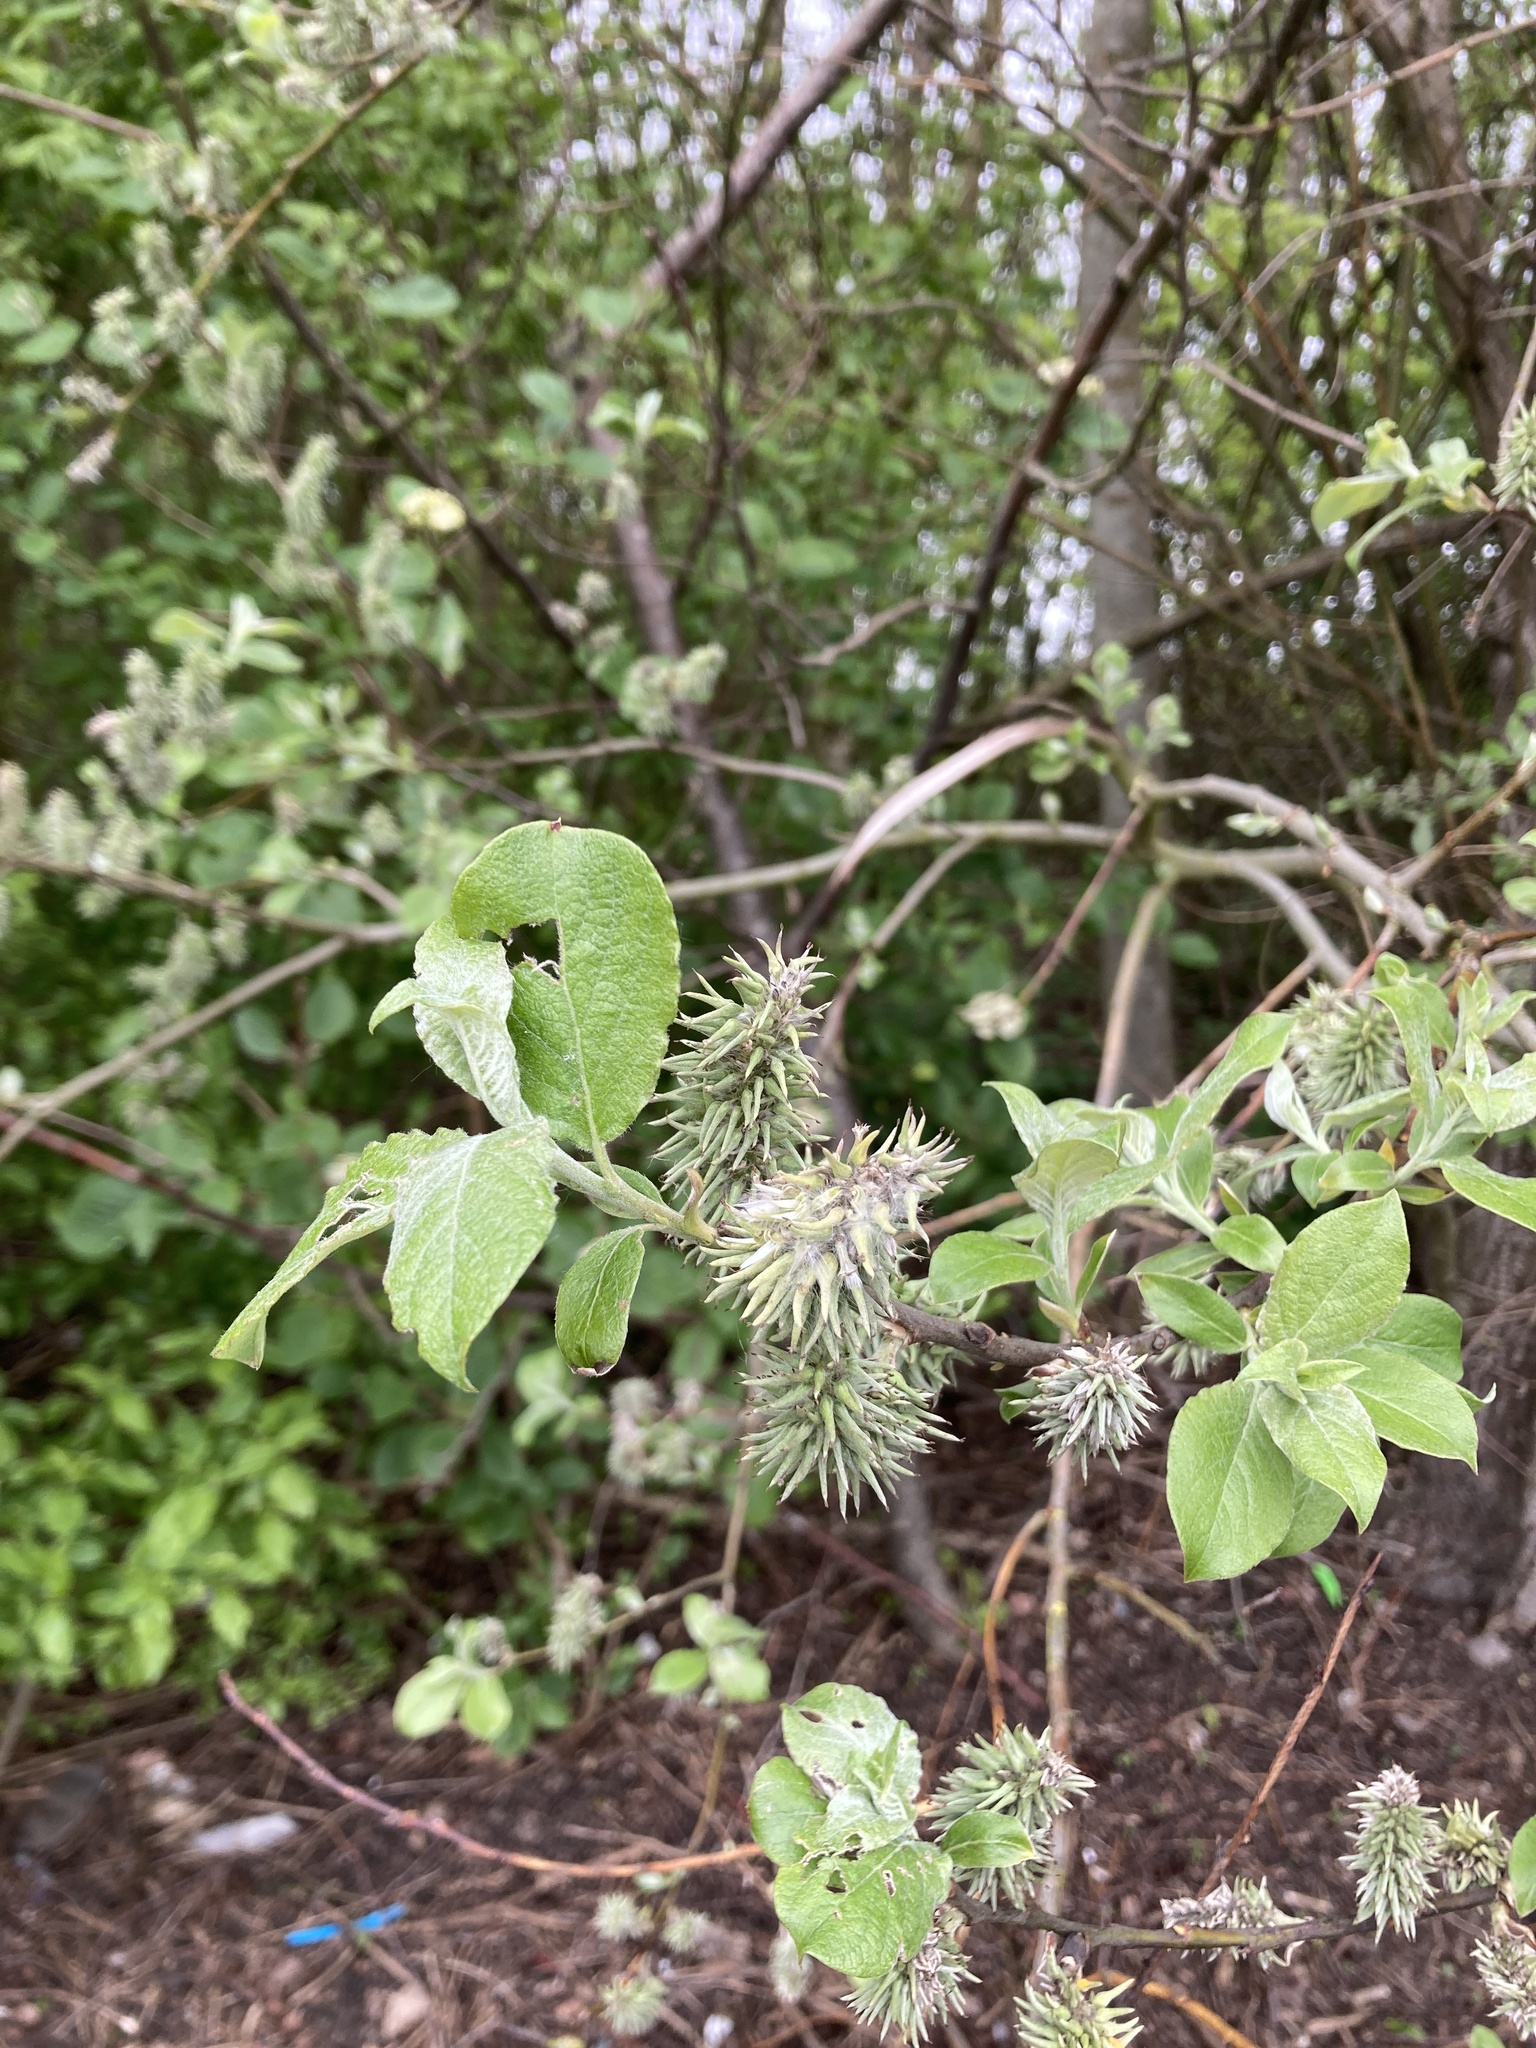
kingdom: Plantae
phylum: Tracheophyta
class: Magnoliopsida
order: Malpighiales
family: Salicaceae
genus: Salix
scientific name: Salix caprea
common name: Goat willow
